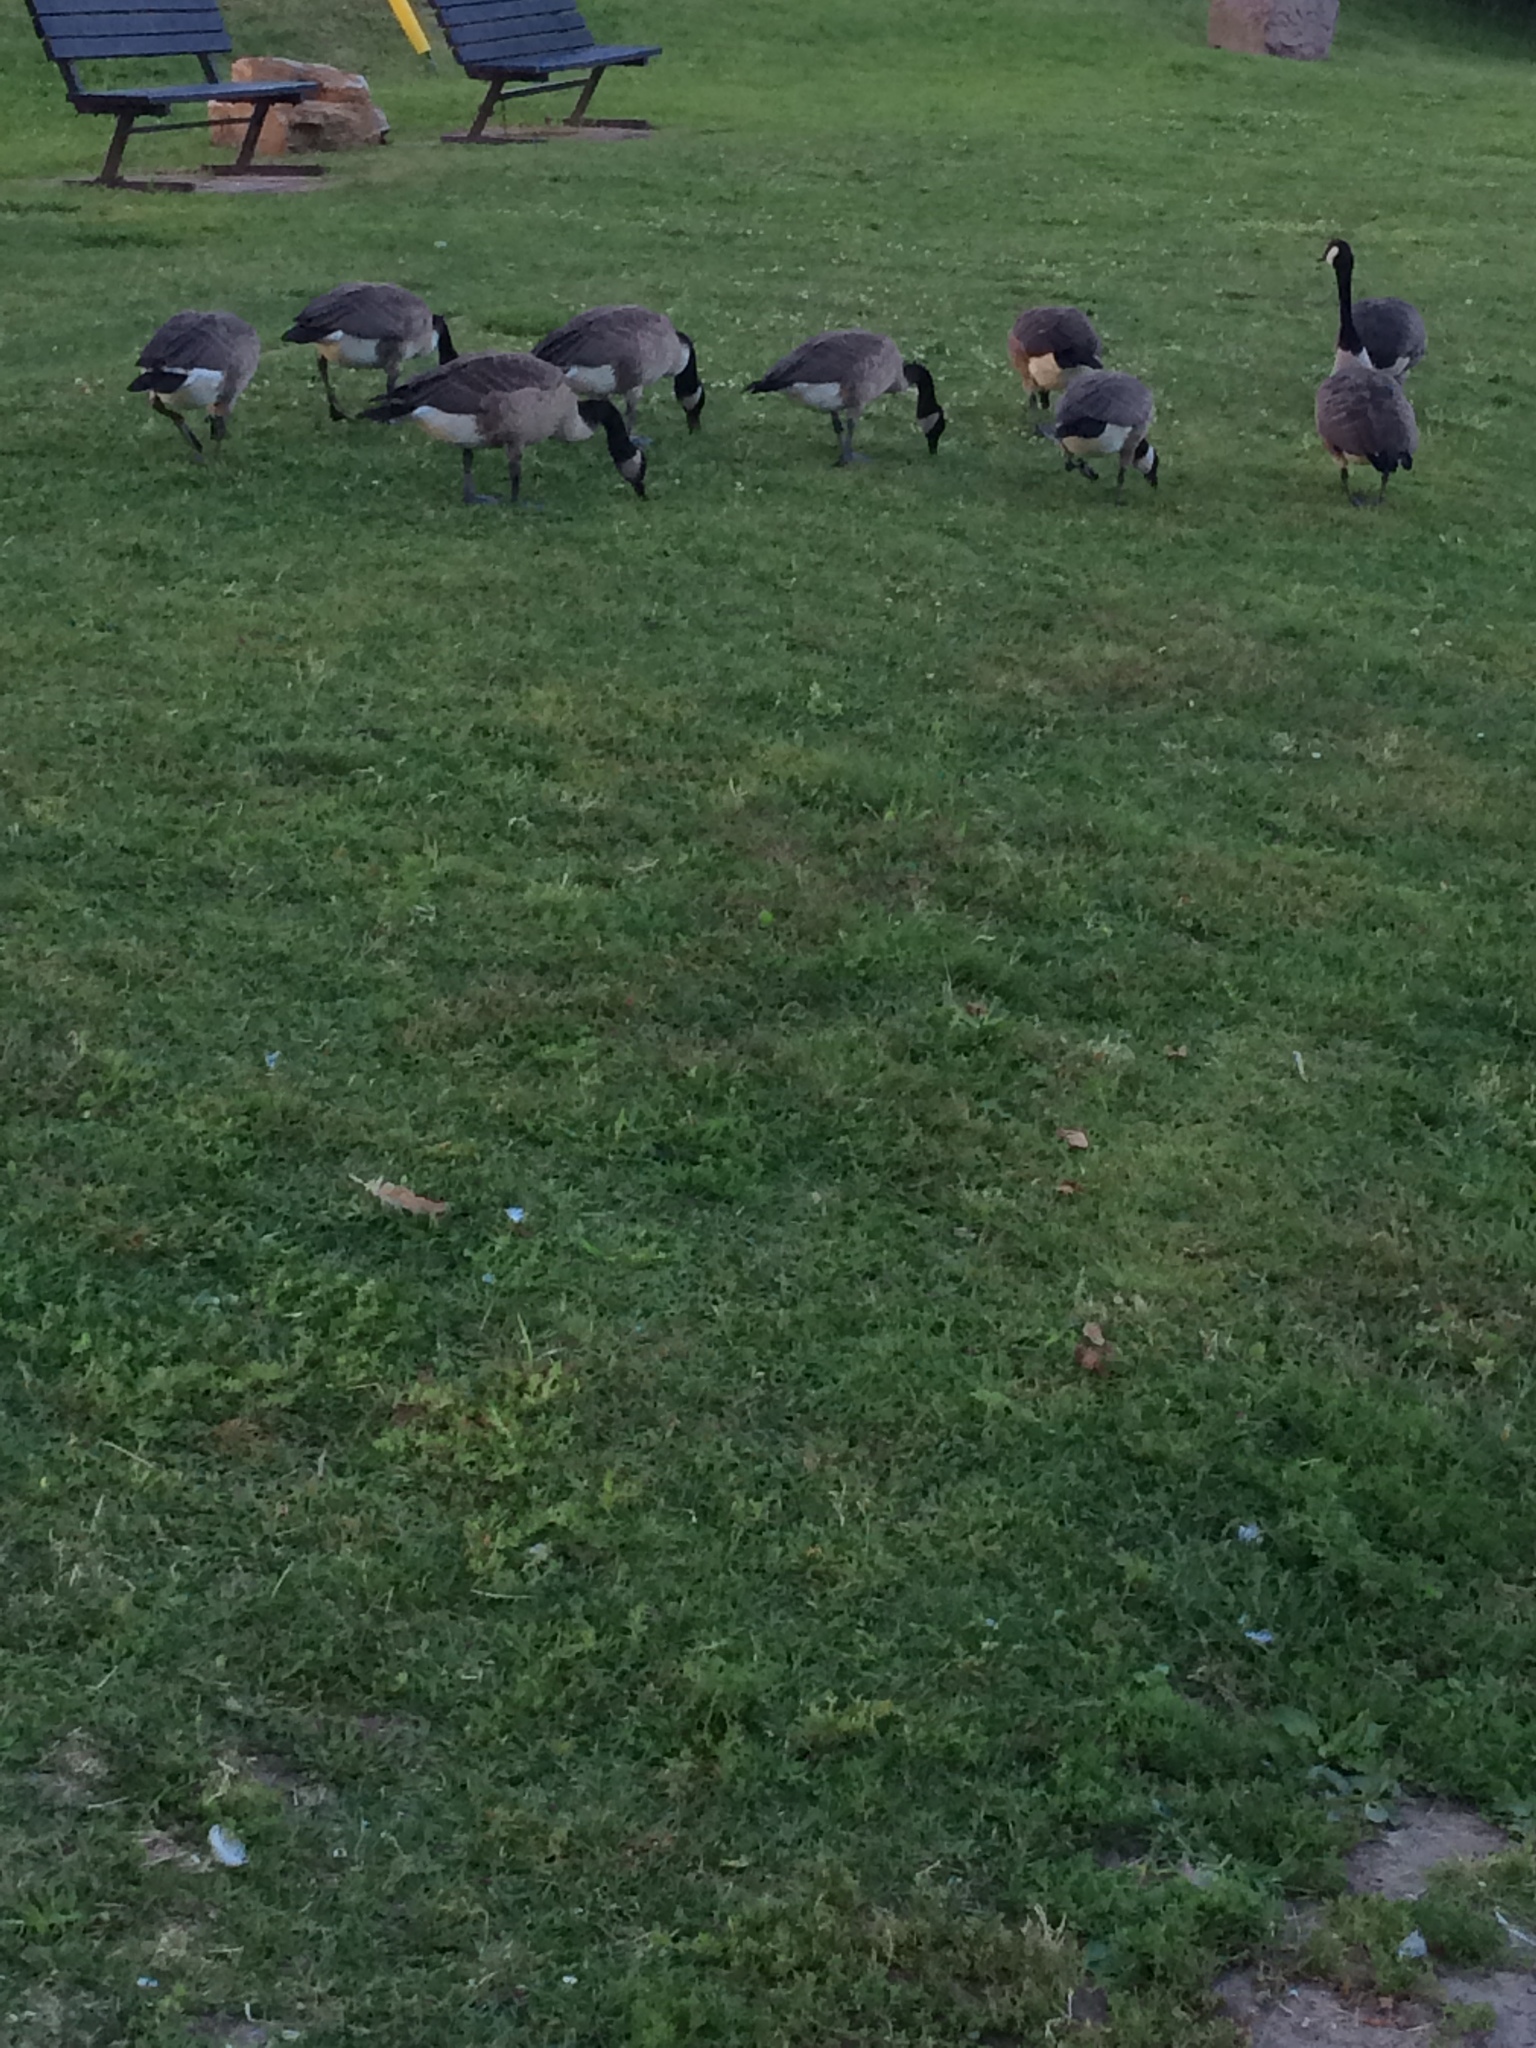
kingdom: Animalia
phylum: Chordata
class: Aves
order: Anseriformes
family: Anatidae
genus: Branta
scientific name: Branta canadensis
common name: Canada goose
